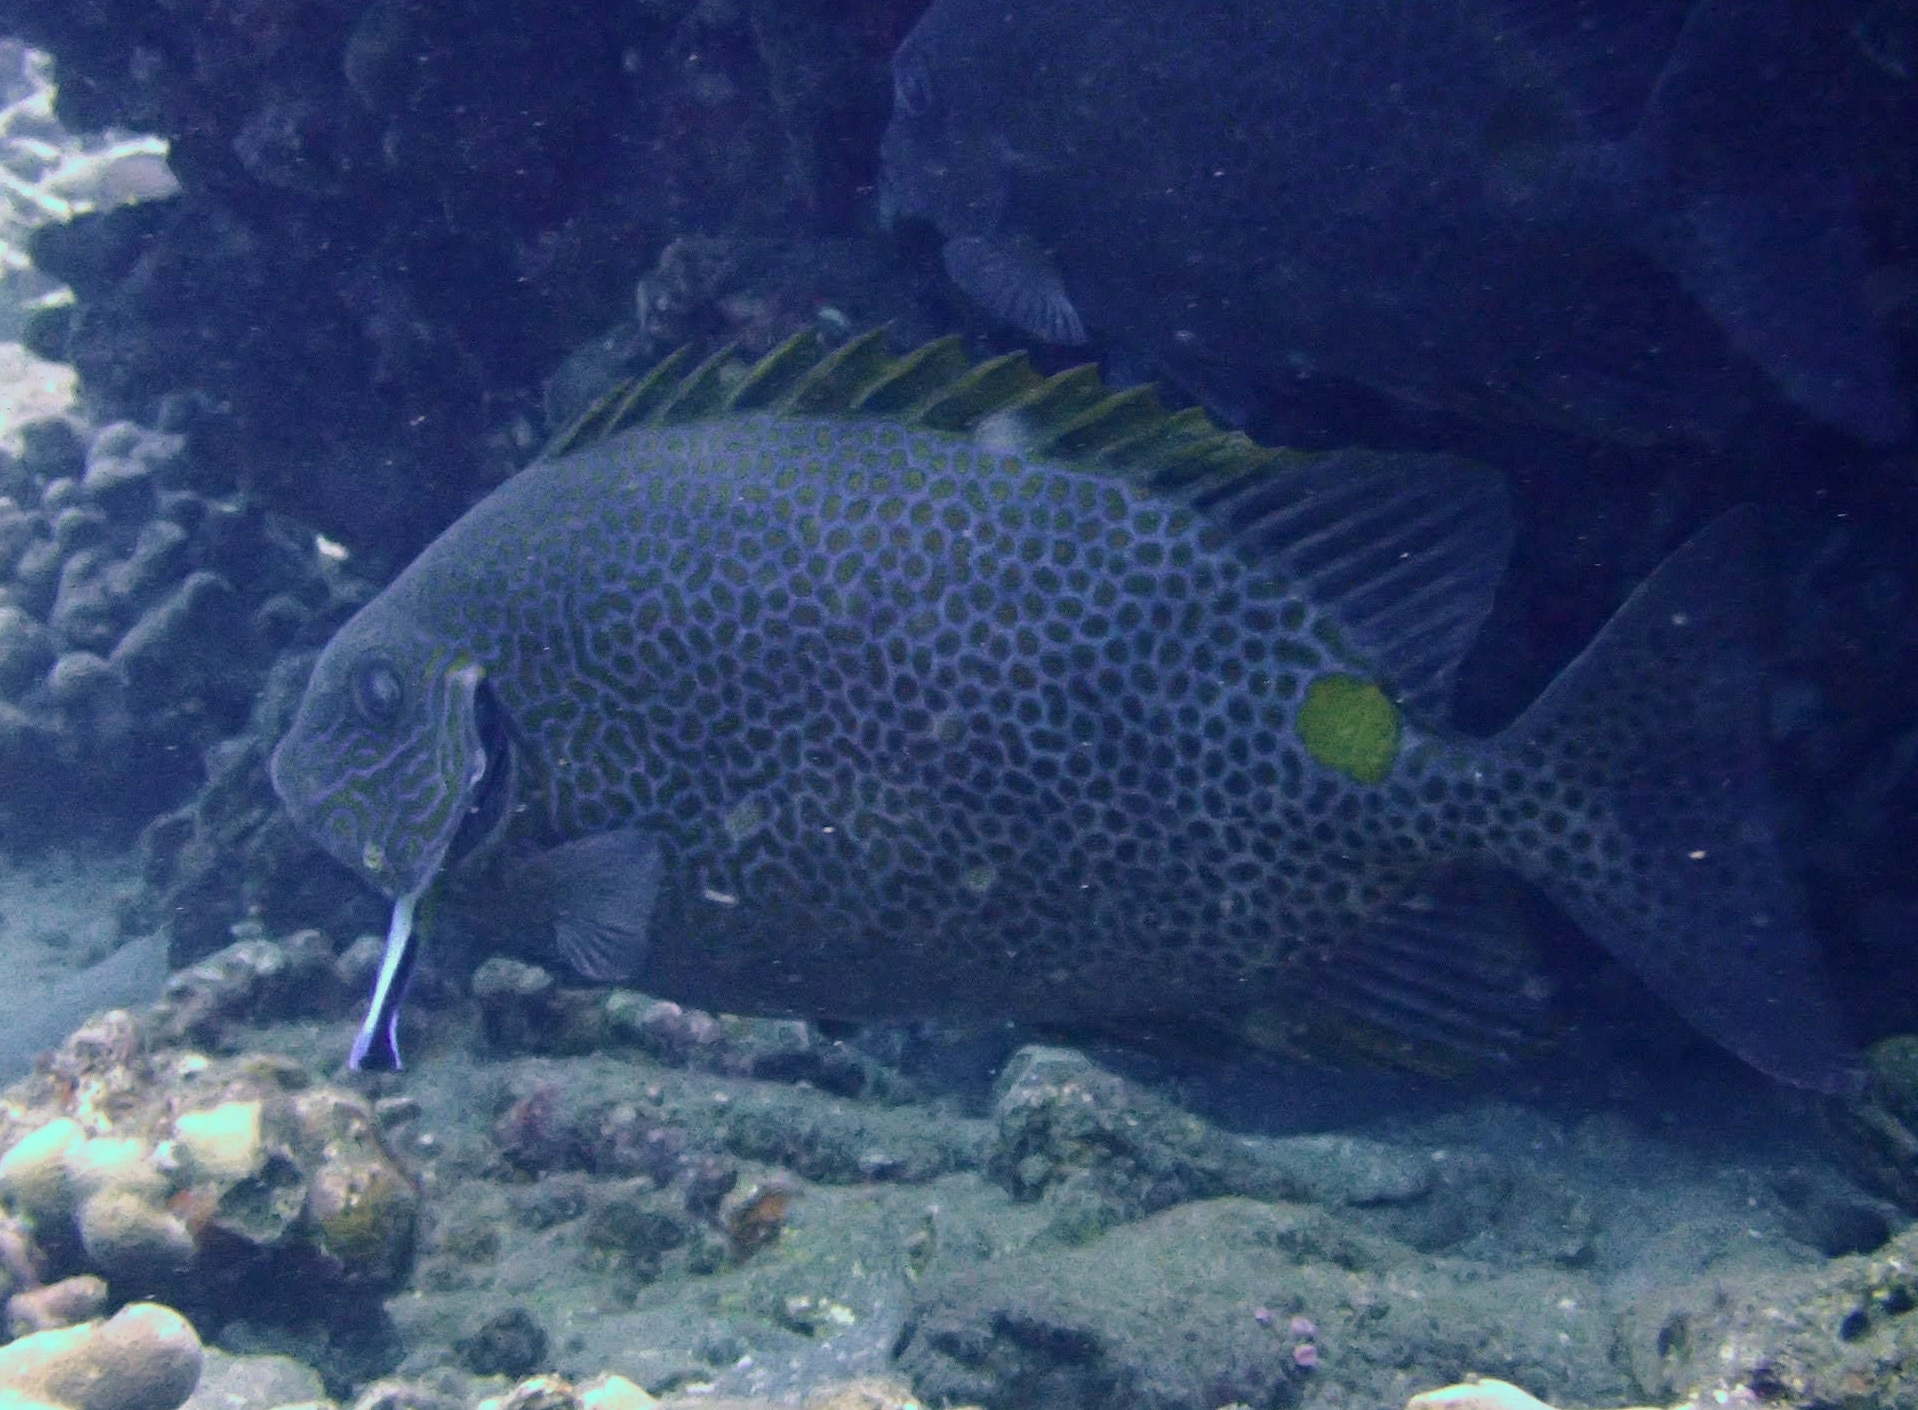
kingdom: Animalia
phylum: Chordata
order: Perciformes
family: Siganidae
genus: Siganus
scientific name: Siganus guttatus
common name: Golden rabbitfish
